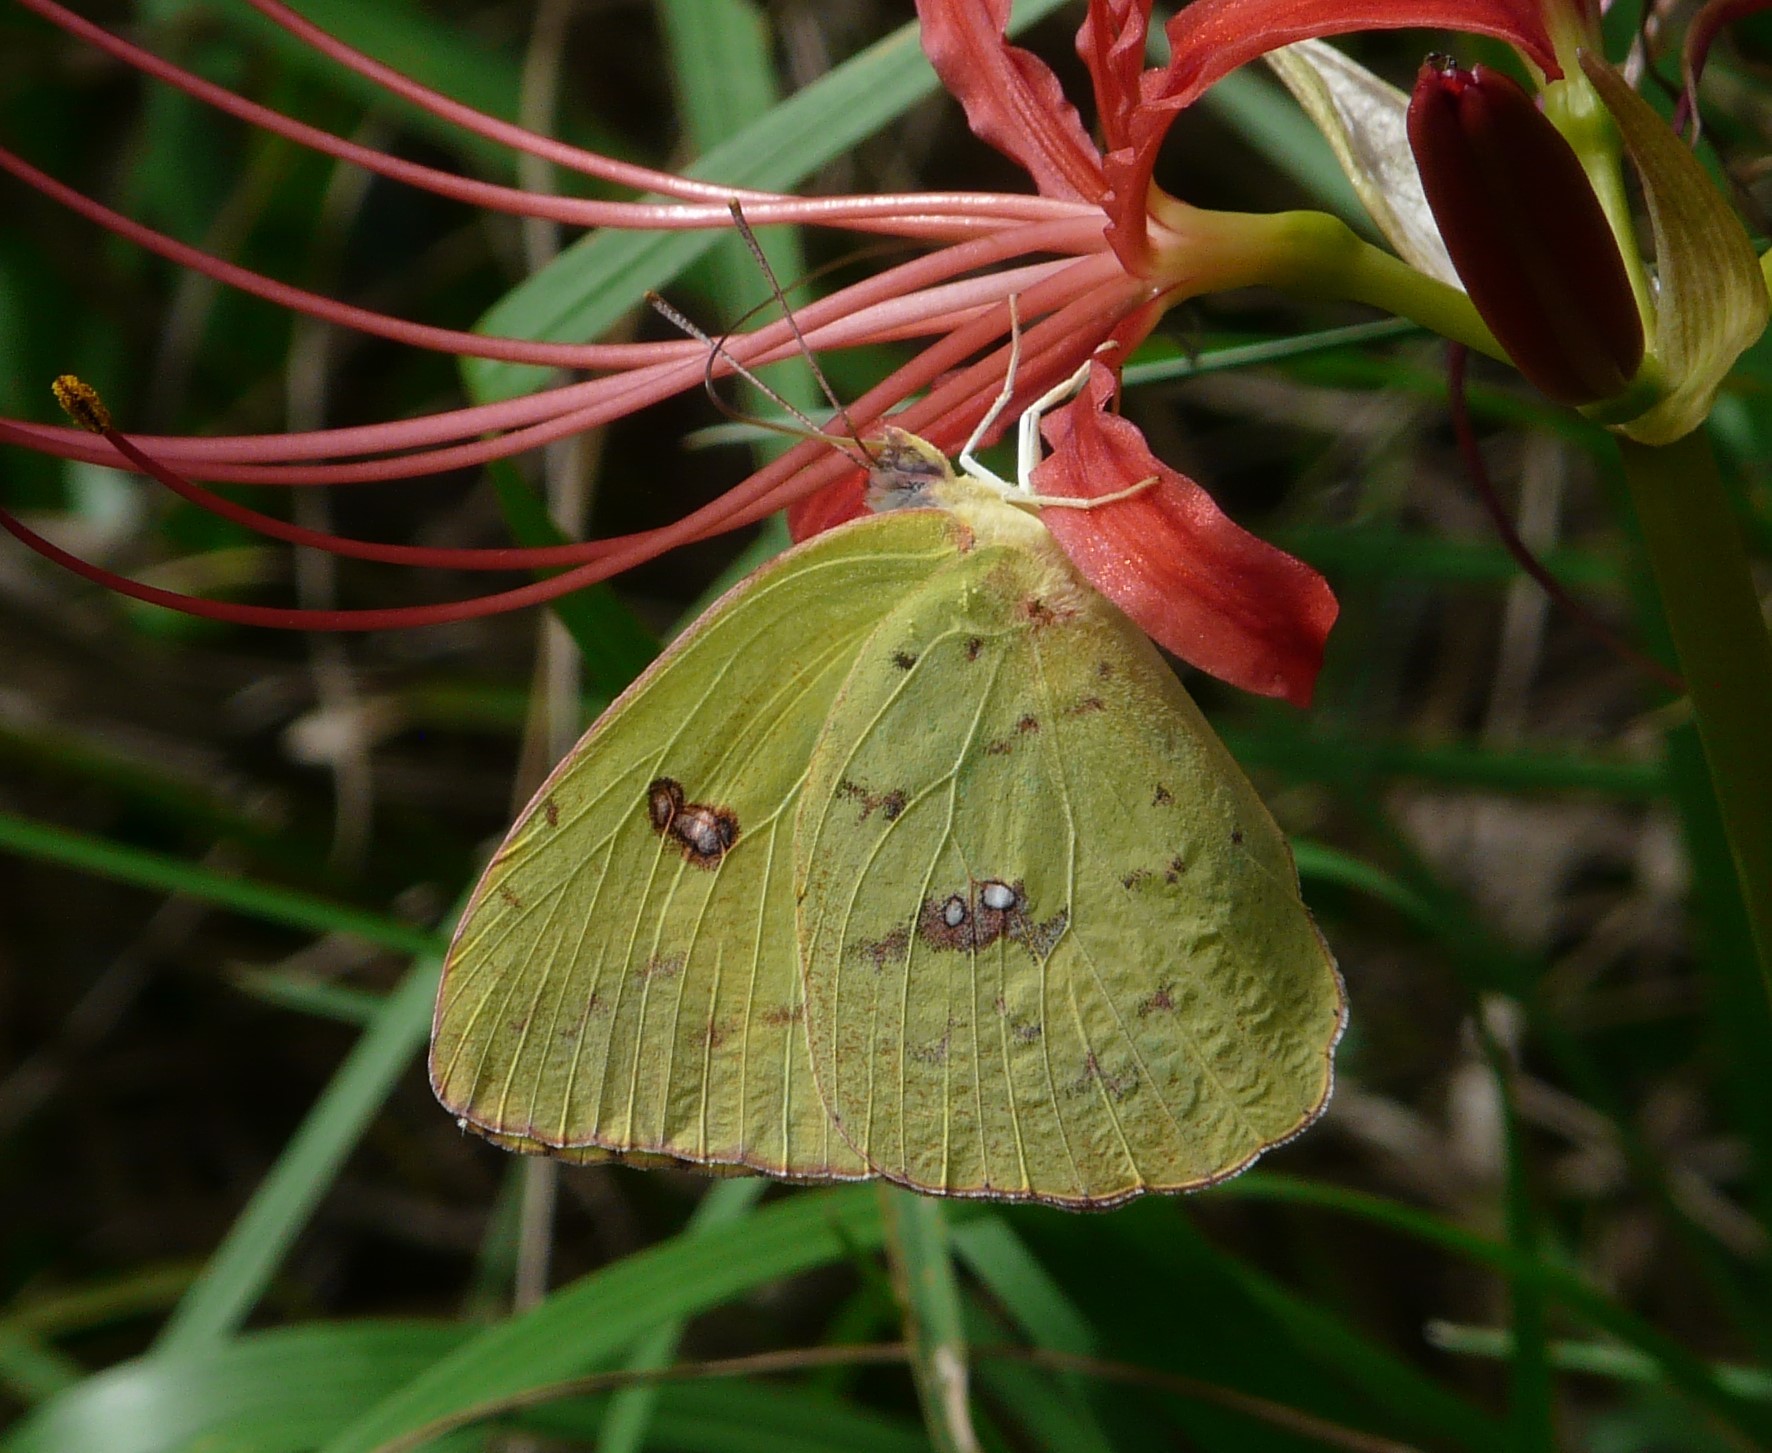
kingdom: Animalia
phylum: Arthropoda
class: Insecta
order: Lepidoptera
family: Pieridae
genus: Phoebis
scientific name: Phoebis sennae
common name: Cloudless sulphur
